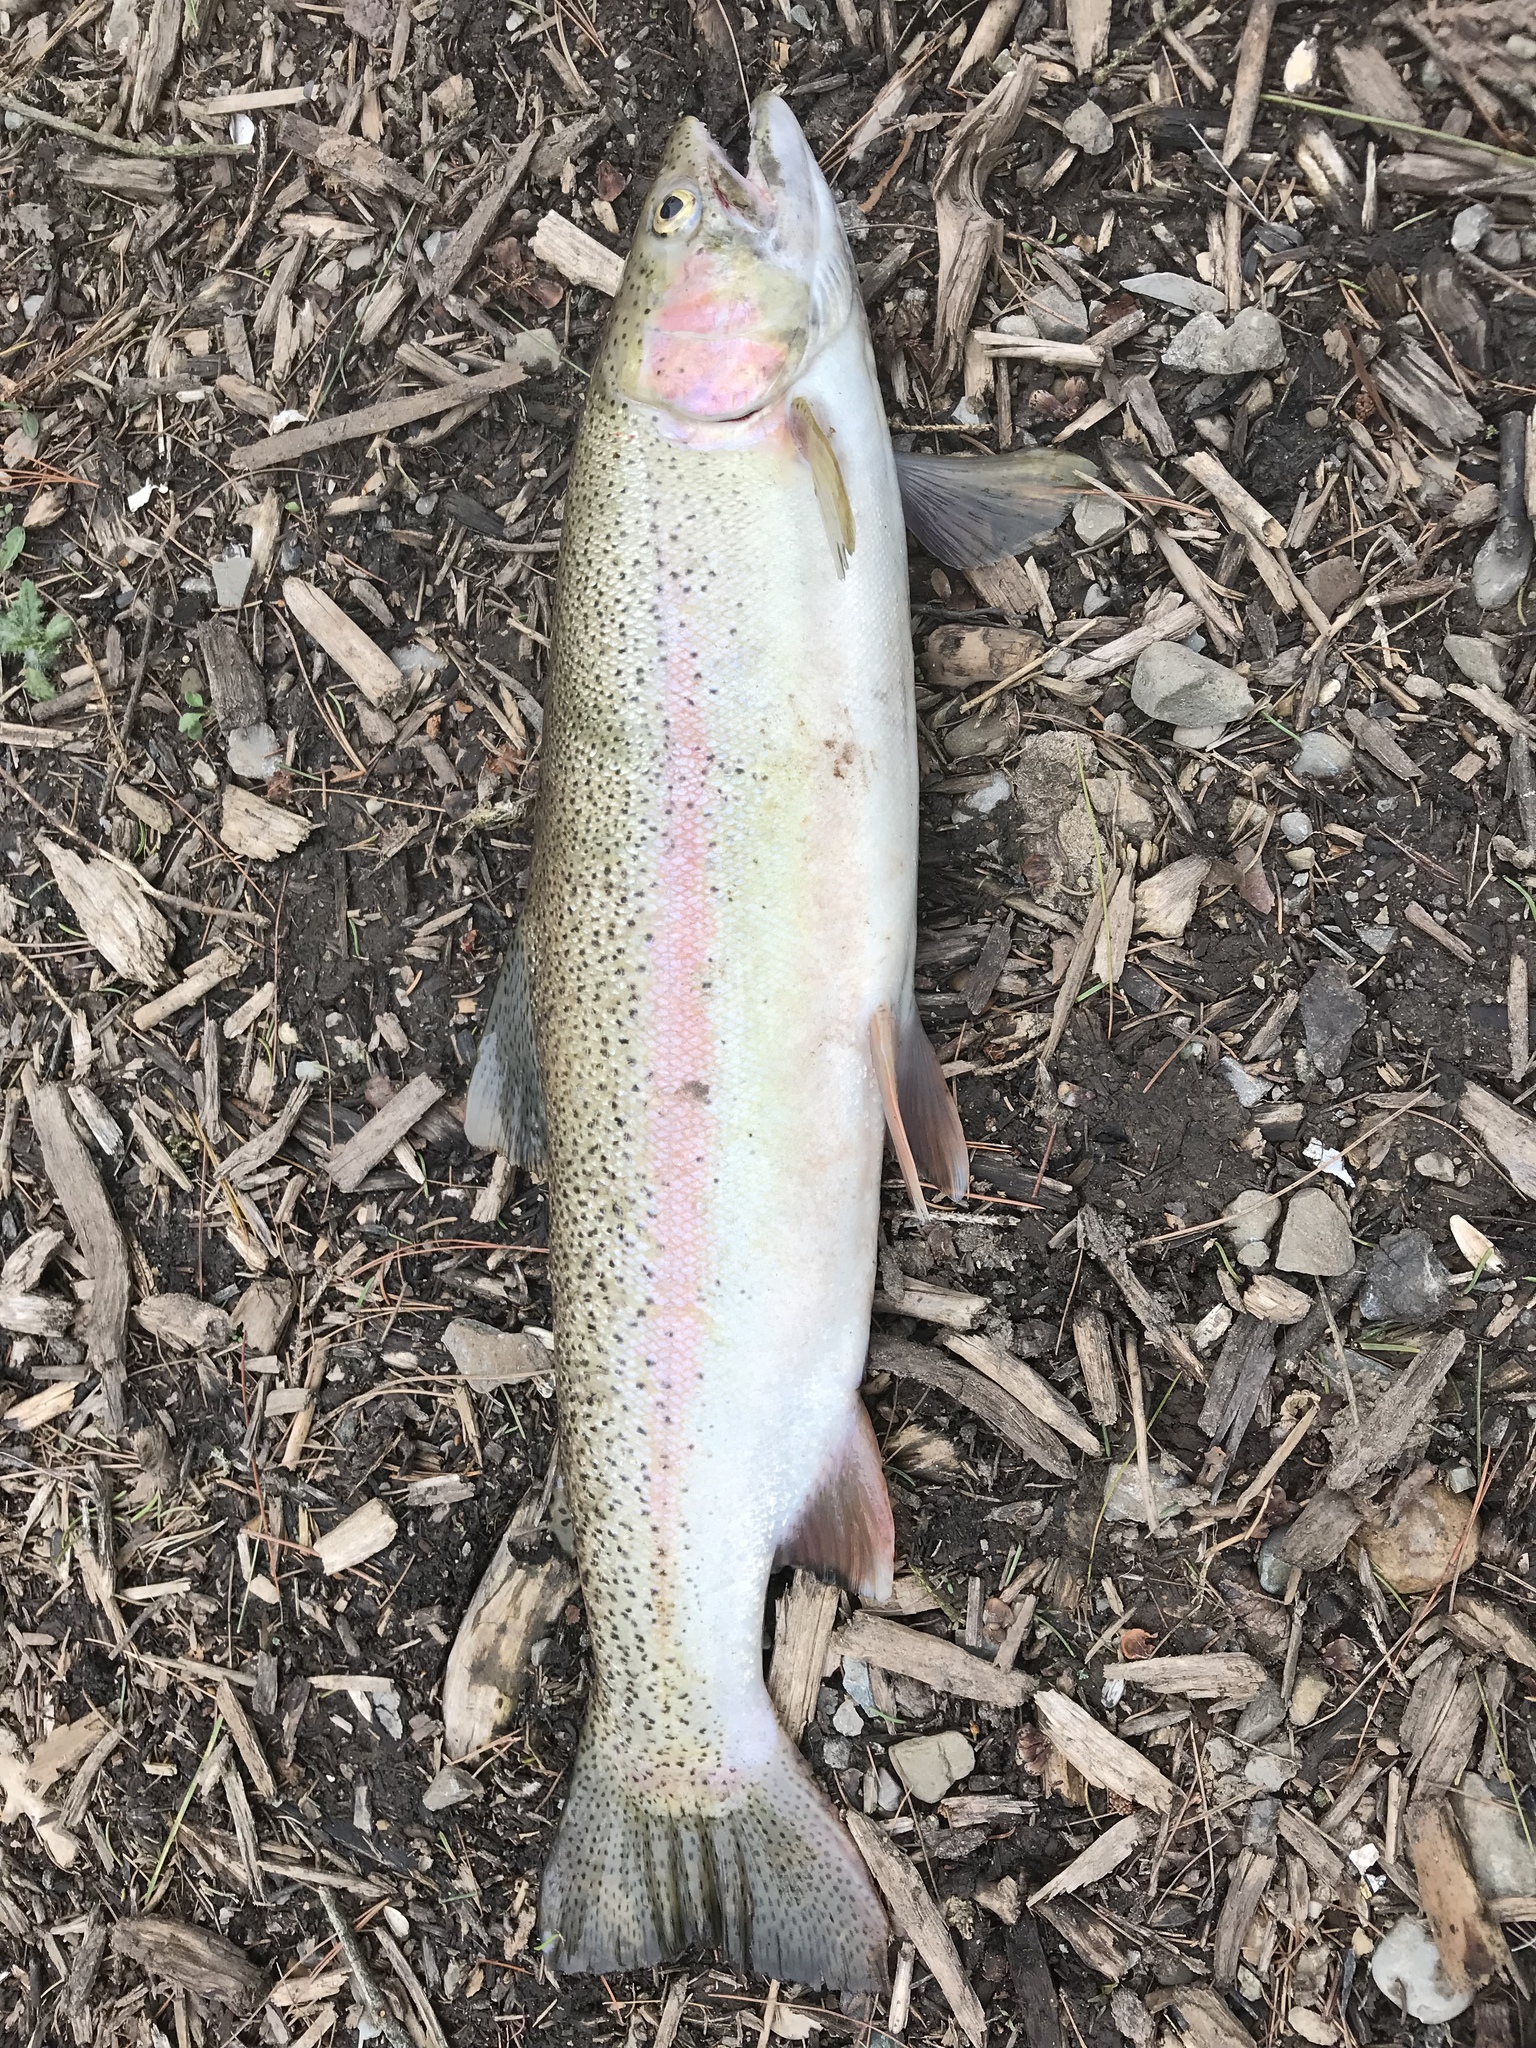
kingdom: Animalia
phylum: Chordata
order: Salmoniformes
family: Salmonidae
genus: Oncorhynchus
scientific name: Oncorhynchus mykiss
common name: Rainbow trout
